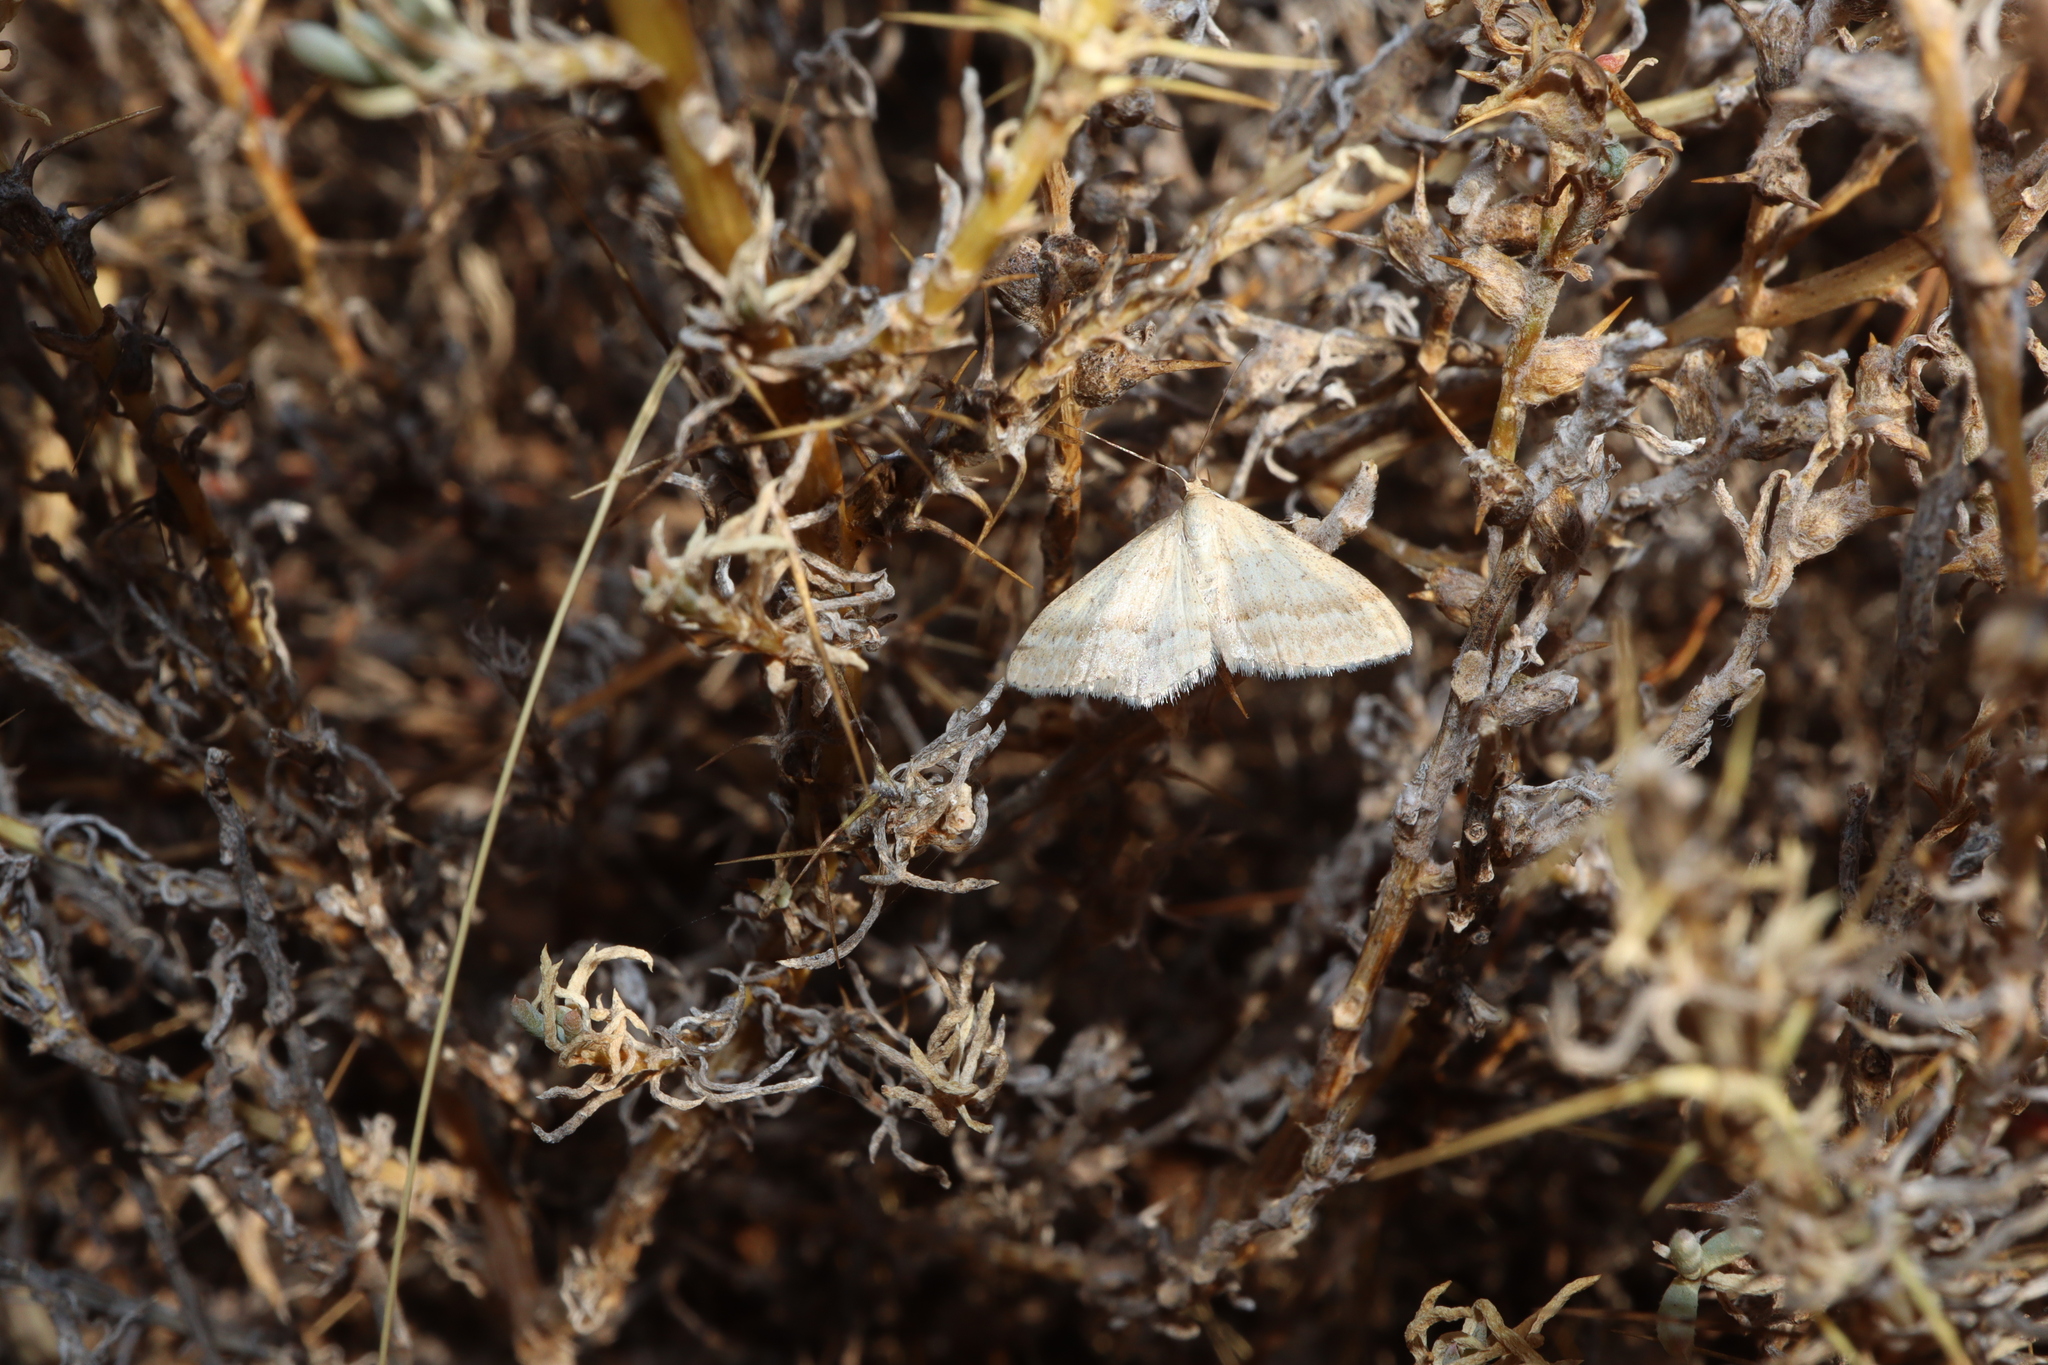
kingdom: Animalia
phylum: Arthropoda
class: Insecta
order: Lepidoptera
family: Geometridae
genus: Scopula
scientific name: Scopula lydia
